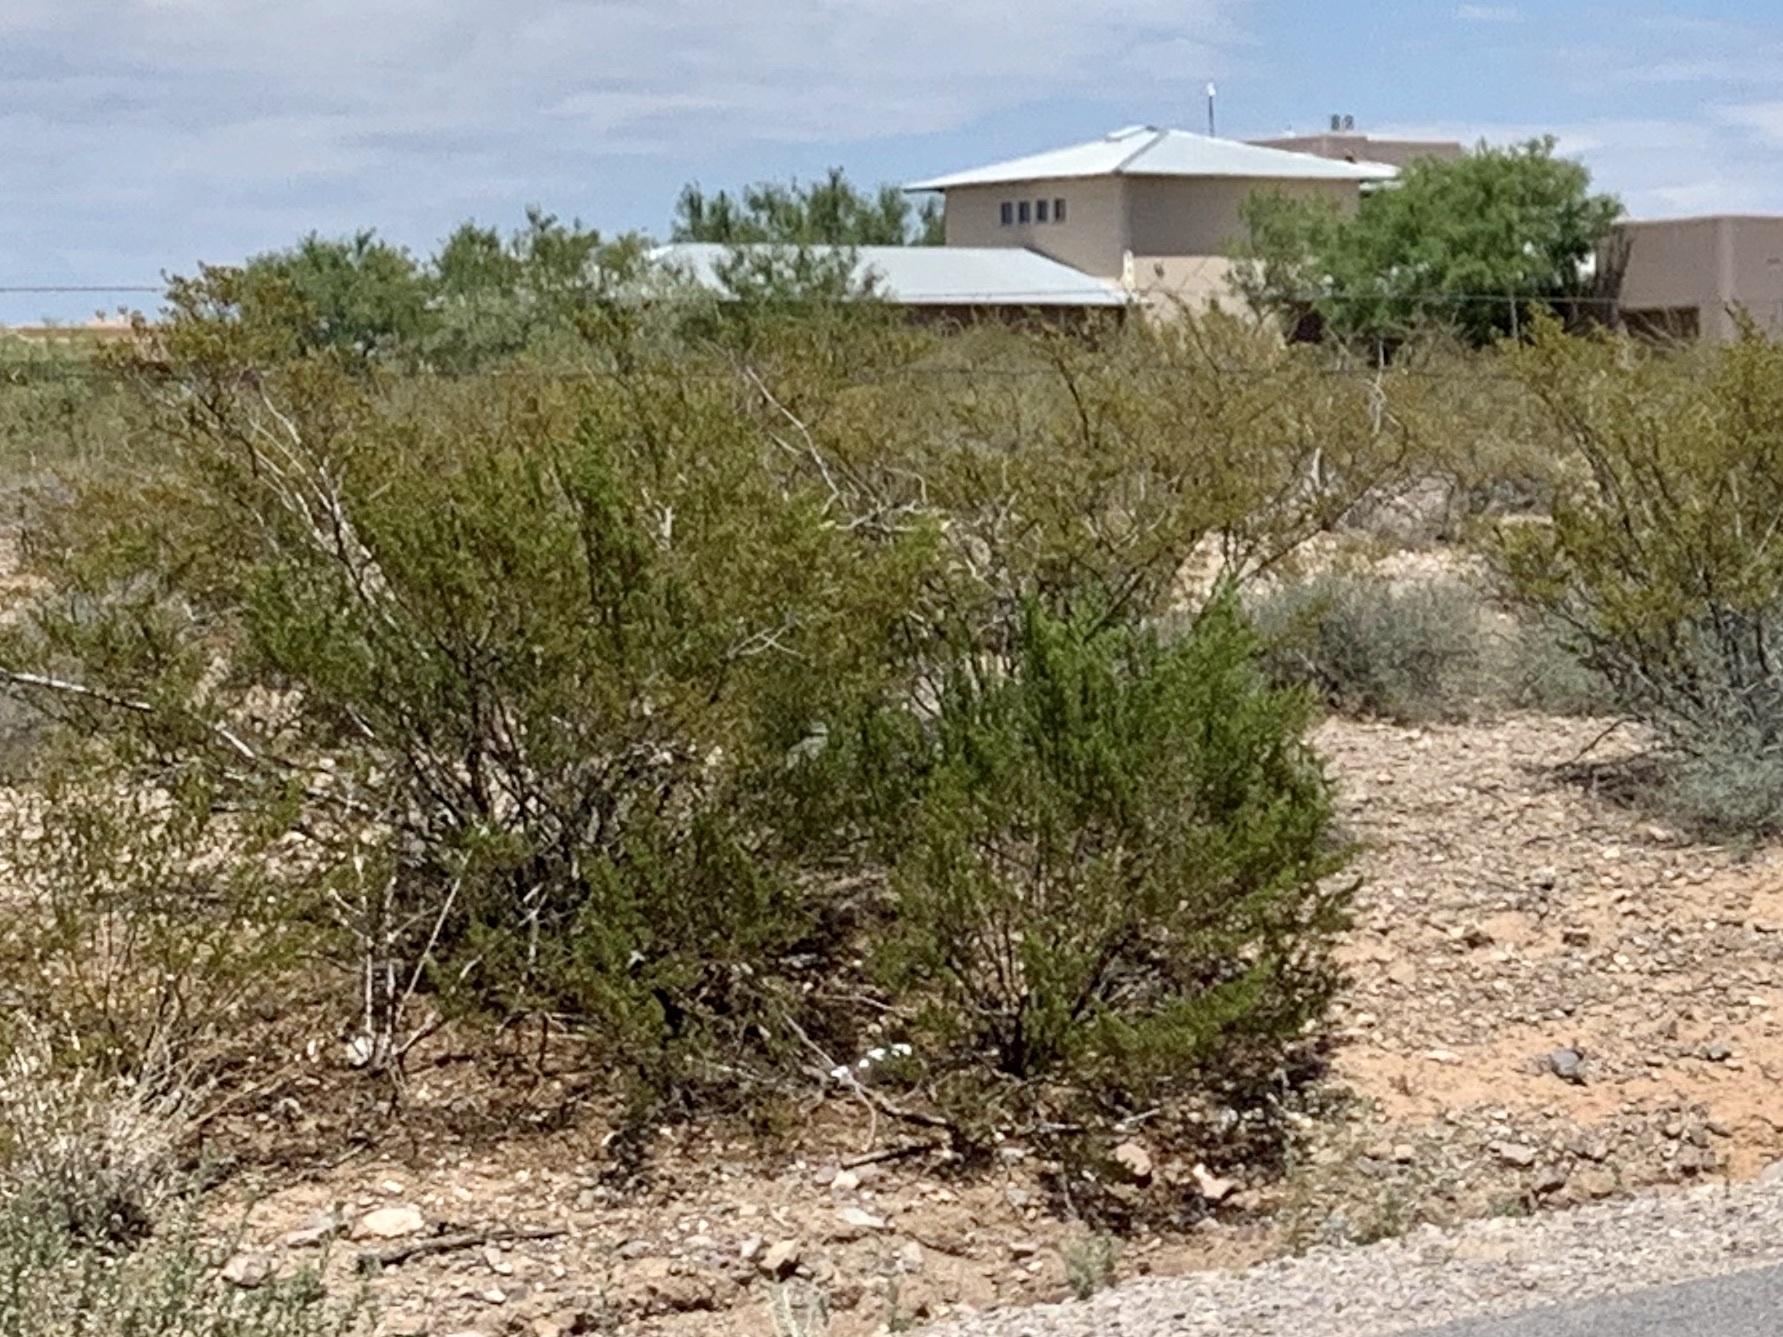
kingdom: Plantae
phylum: Tracheophyta
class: Magnoliopsida
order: Zygophyllales
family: Zygophyllaceae
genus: Larrea
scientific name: Larrea tridentata
